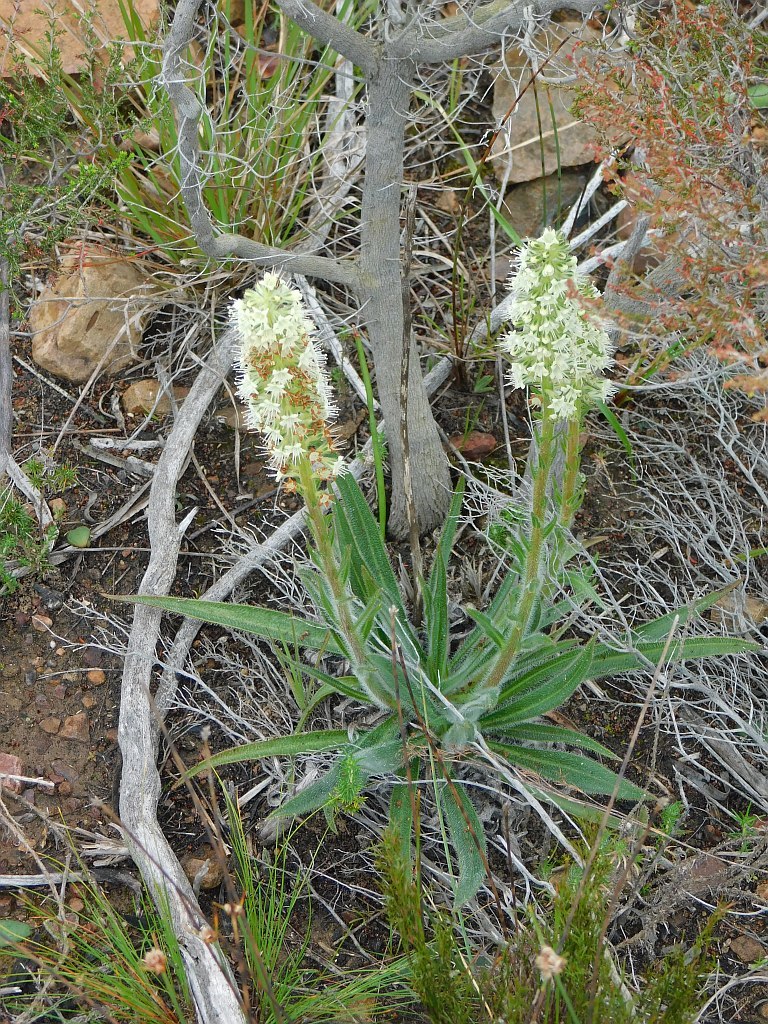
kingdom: Plantae
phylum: Tracheophyta
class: Magnoliopsida
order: Boraginales
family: Boraginaceae
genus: Lobostemon
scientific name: Lobostemon splendens
